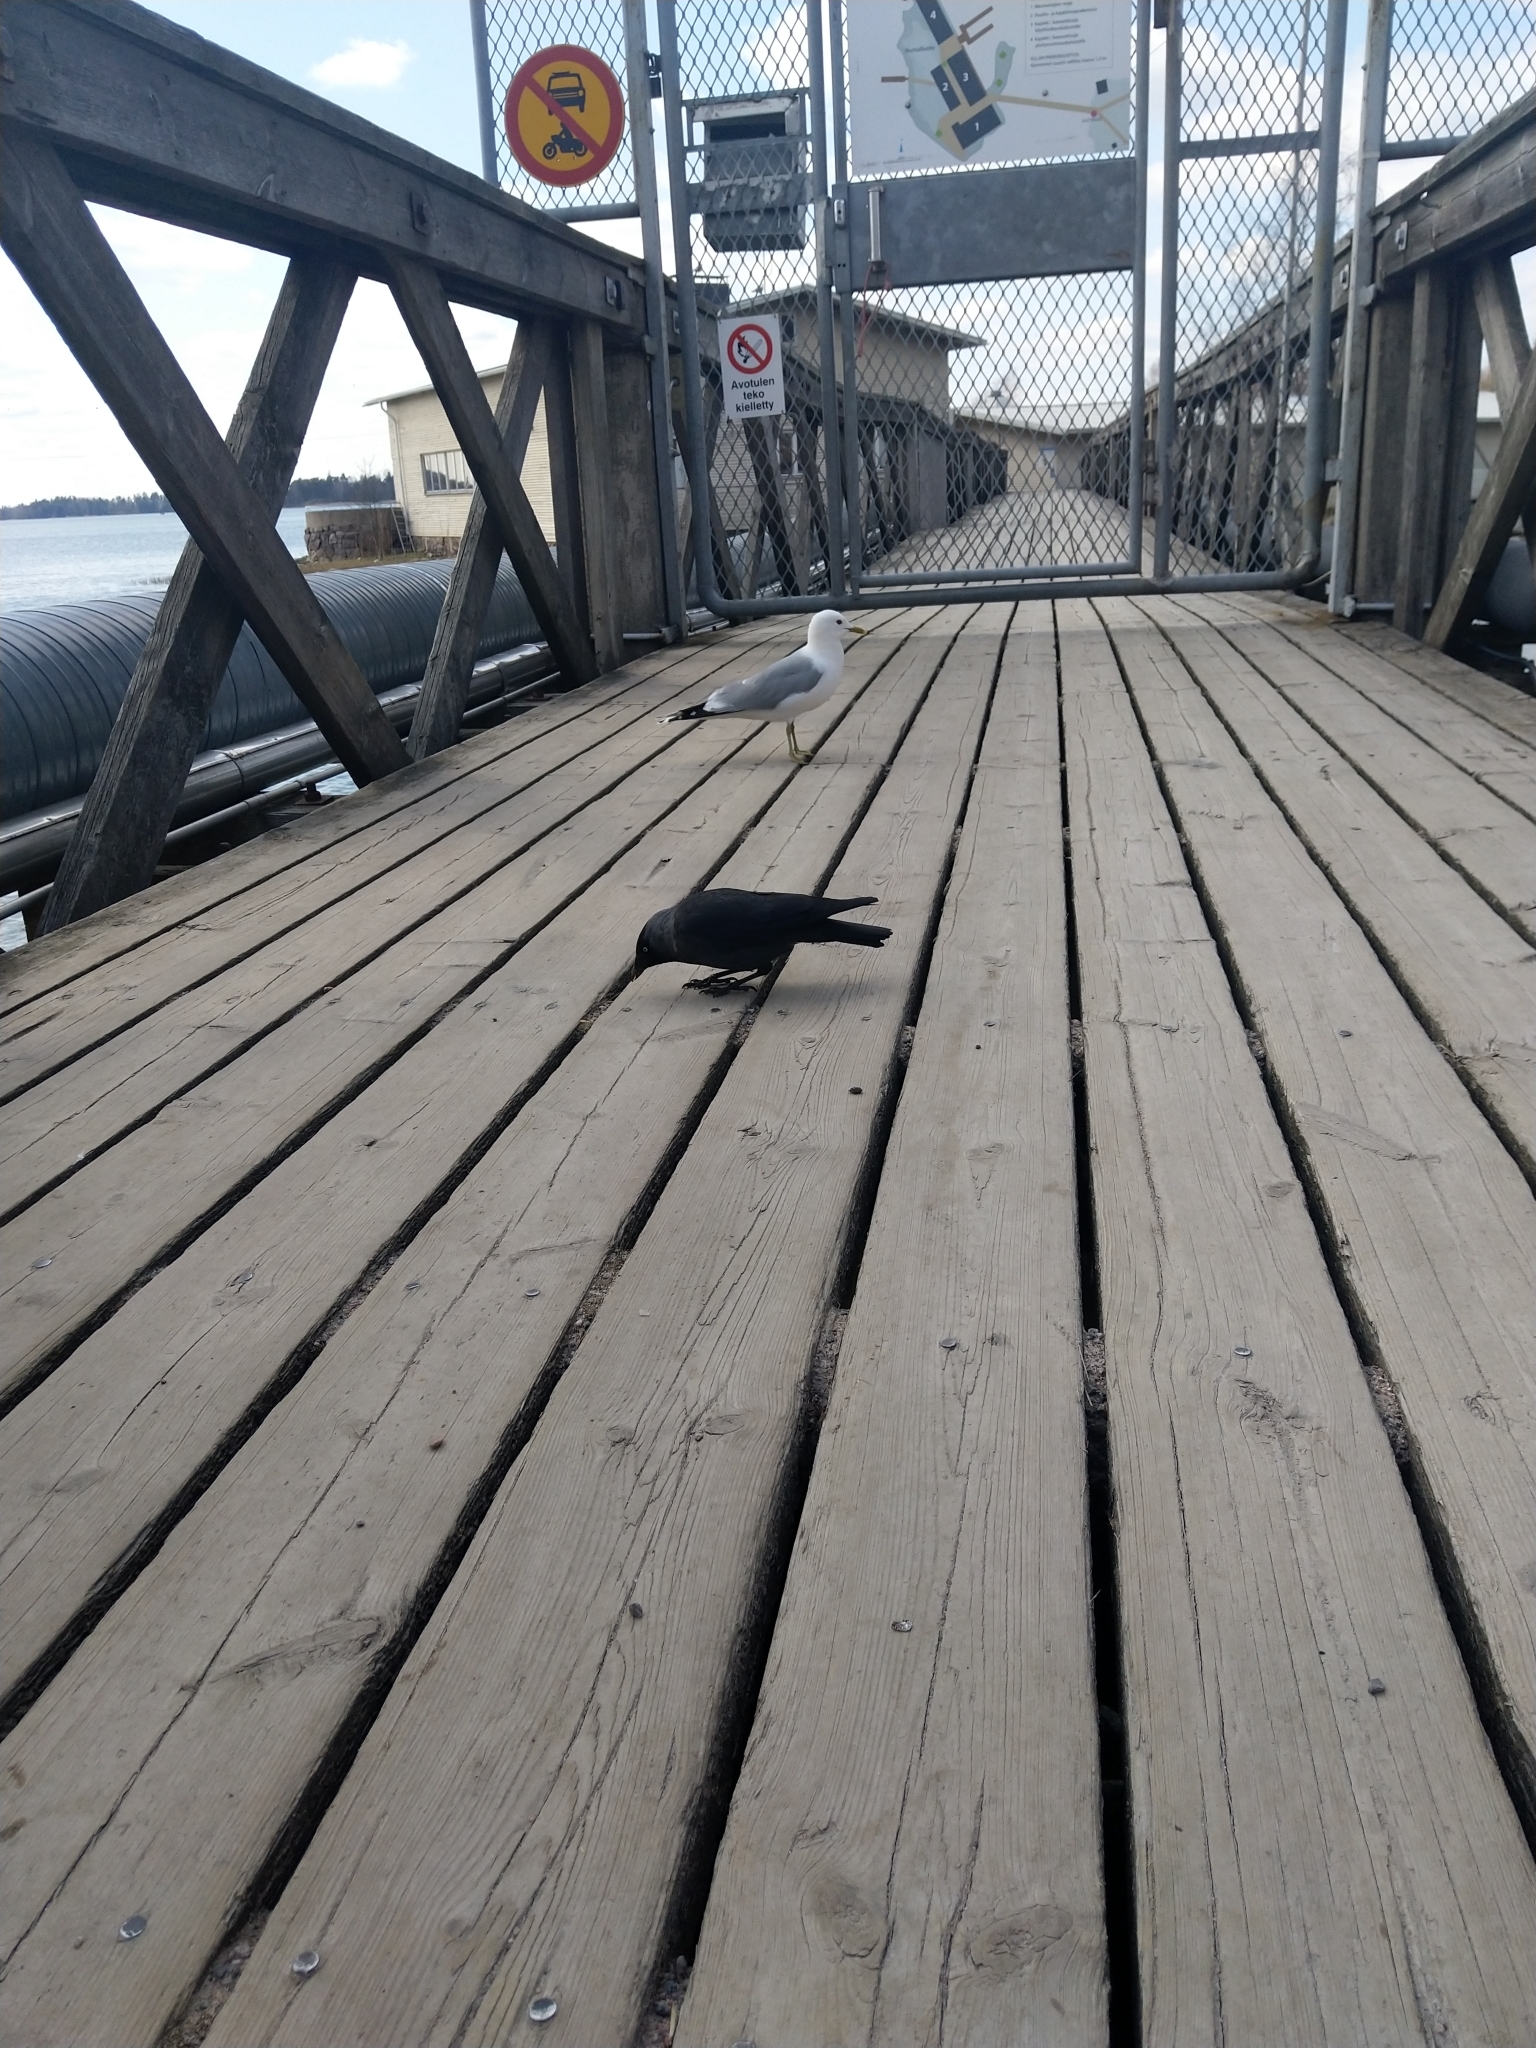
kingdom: Animalia
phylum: Chordata
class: Aves
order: Passeriformes
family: Corvidae
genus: Coloeus
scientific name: Coloeus monedula
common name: Western jackdaw
